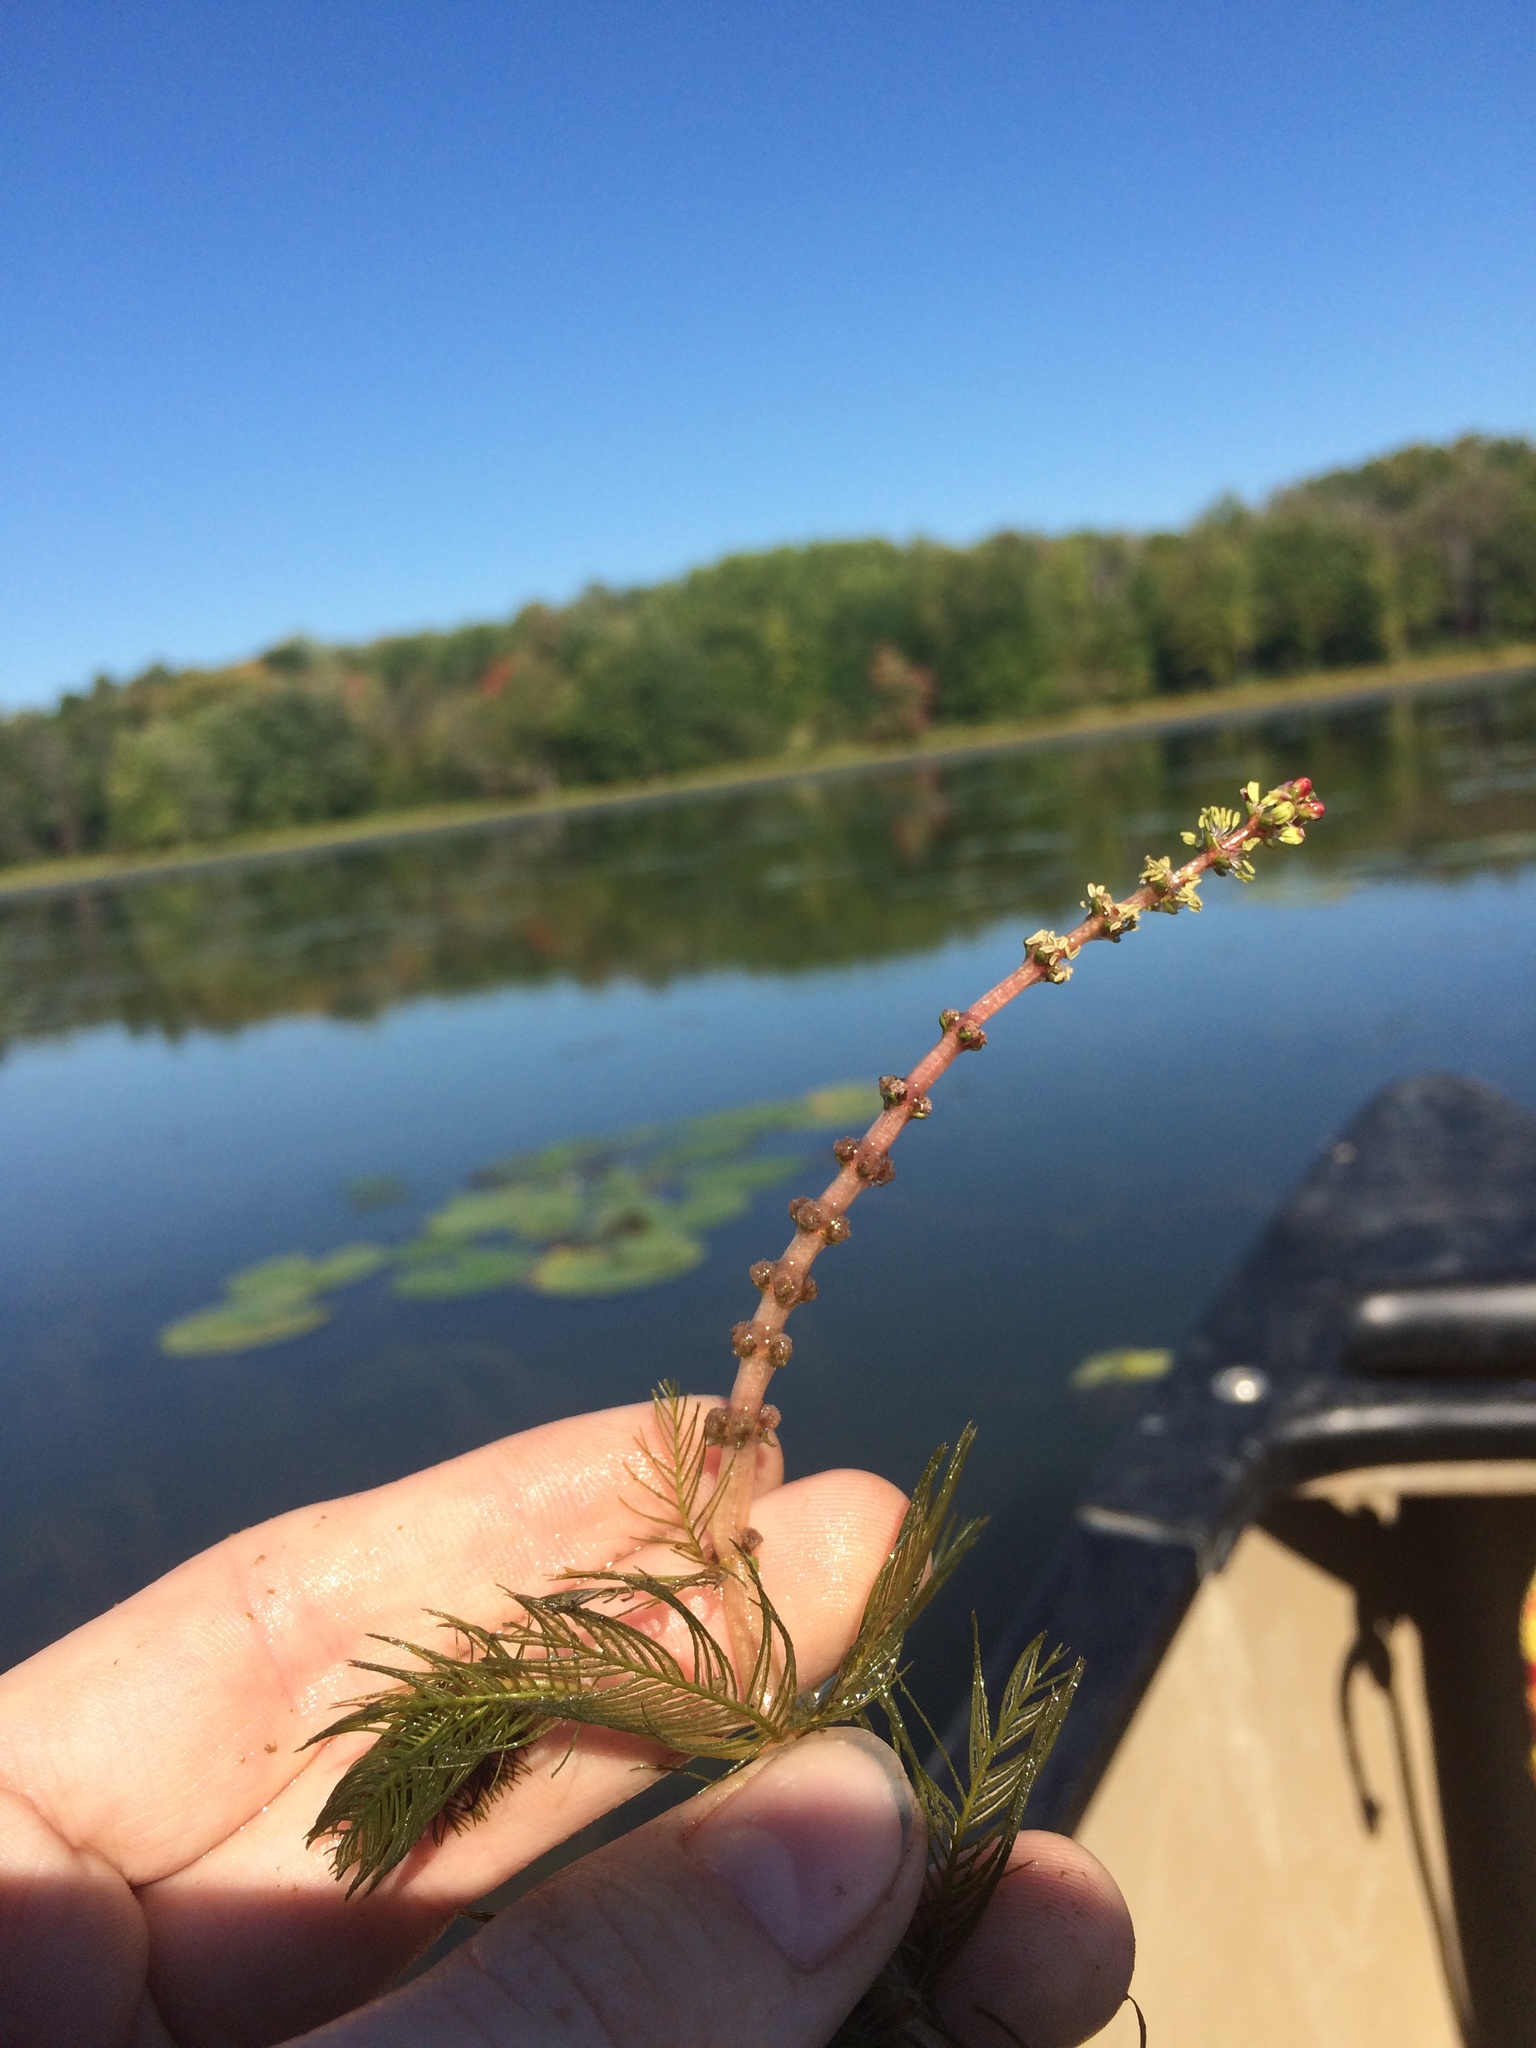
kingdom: Plantae
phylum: Tracheophyta
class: Magnoliopsida
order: Saxifragales
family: Haloragaceae
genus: Myriophyllum
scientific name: Myriophyllum spicatum
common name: Spiked water-milfoil
